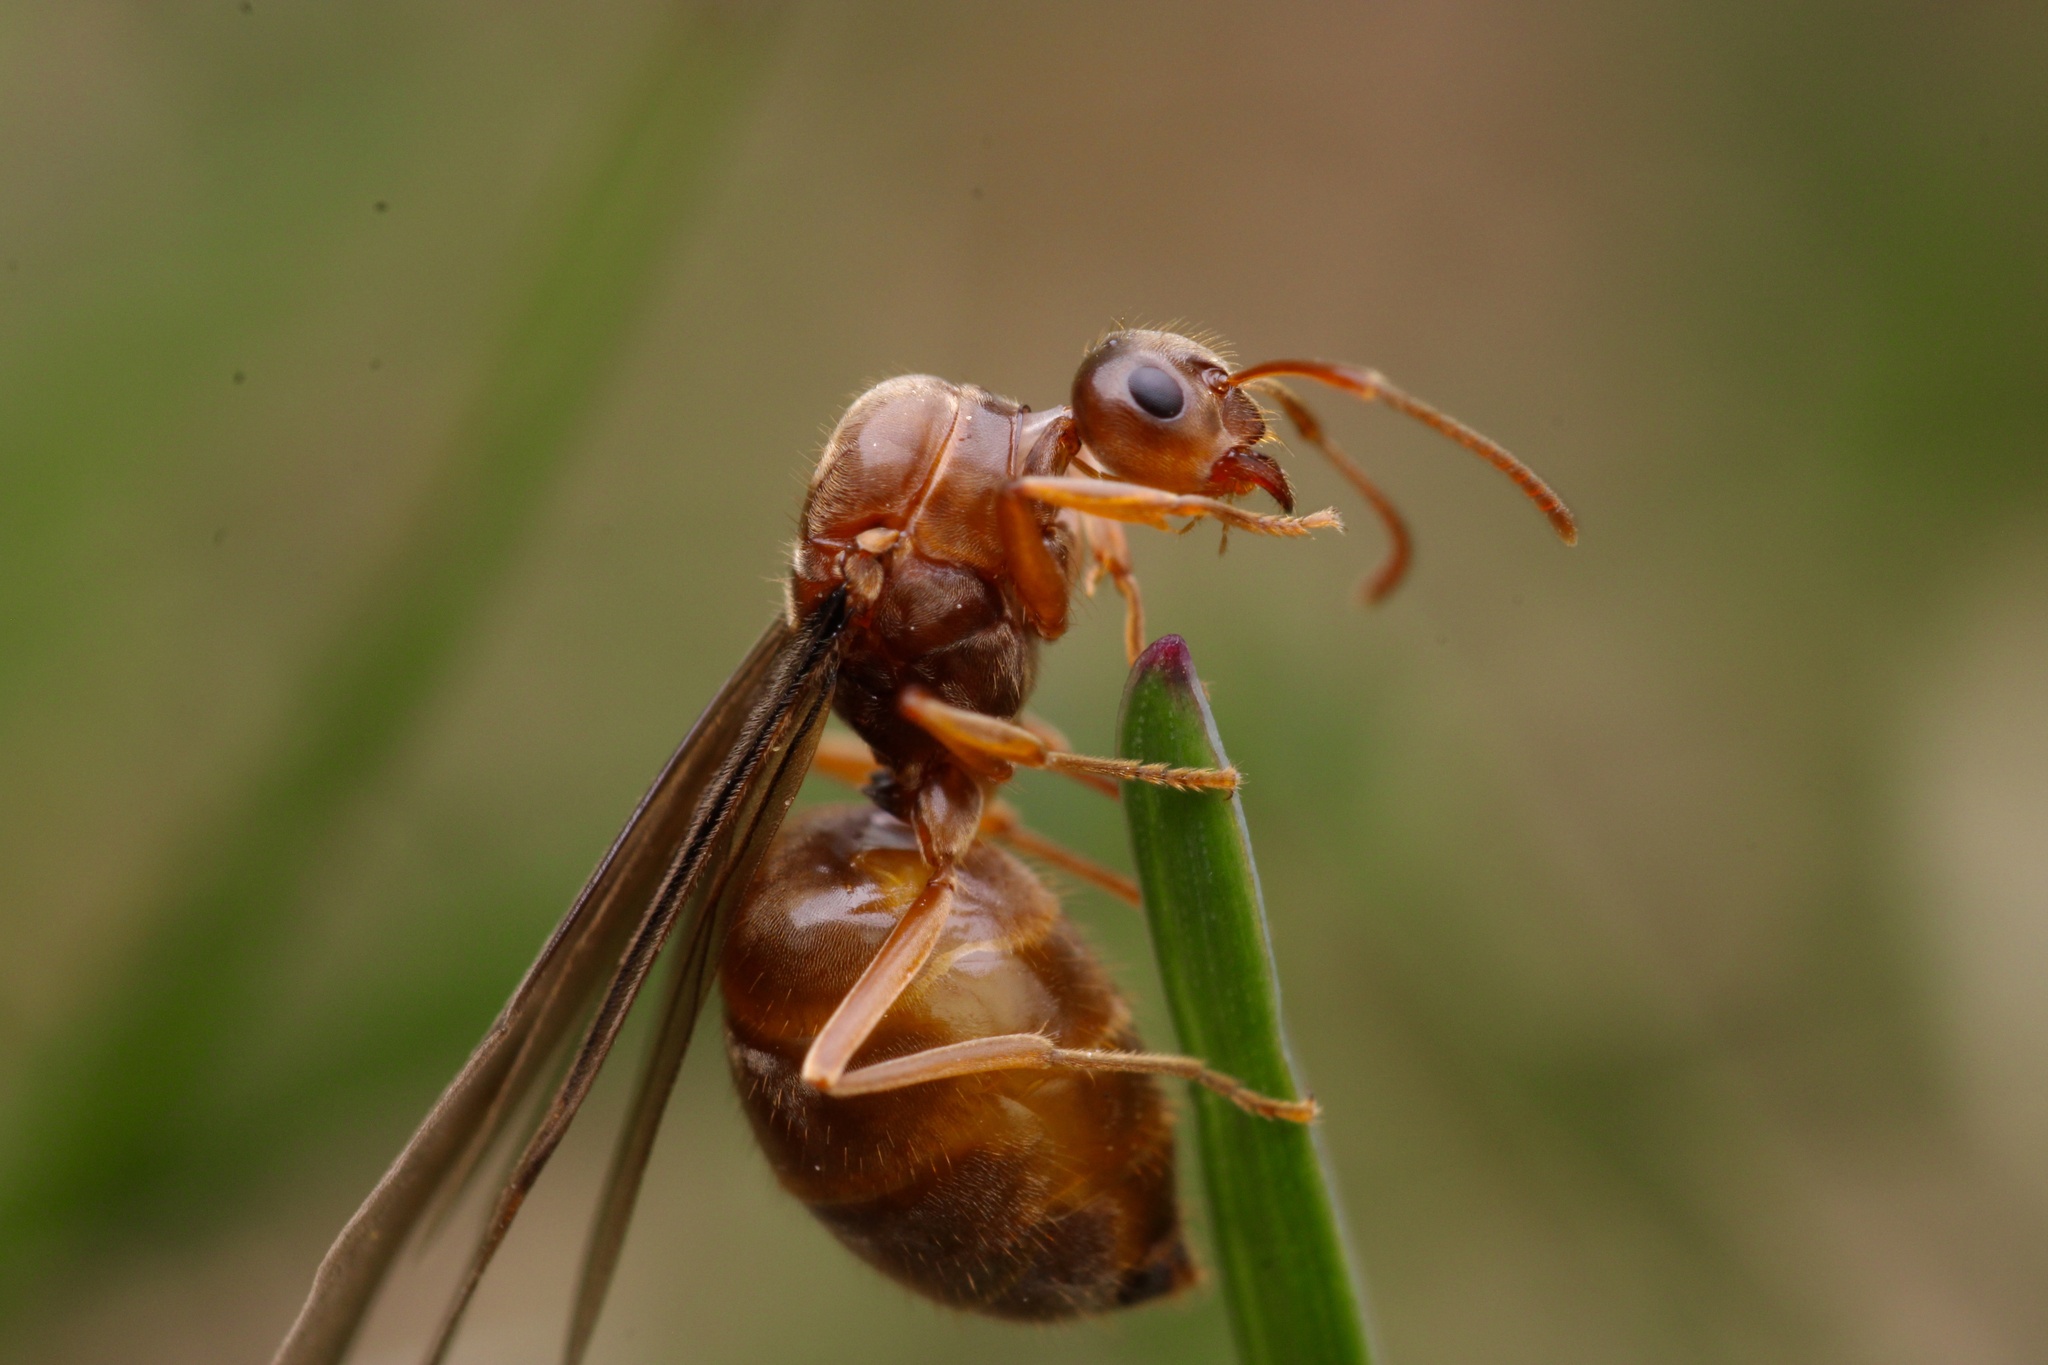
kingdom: Animalia
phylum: Arthropoda
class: Insecta
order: Hymenoptera
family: Formicidae
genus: Prenolepis
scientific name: Prenolepis imparis
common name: Small honey ant
